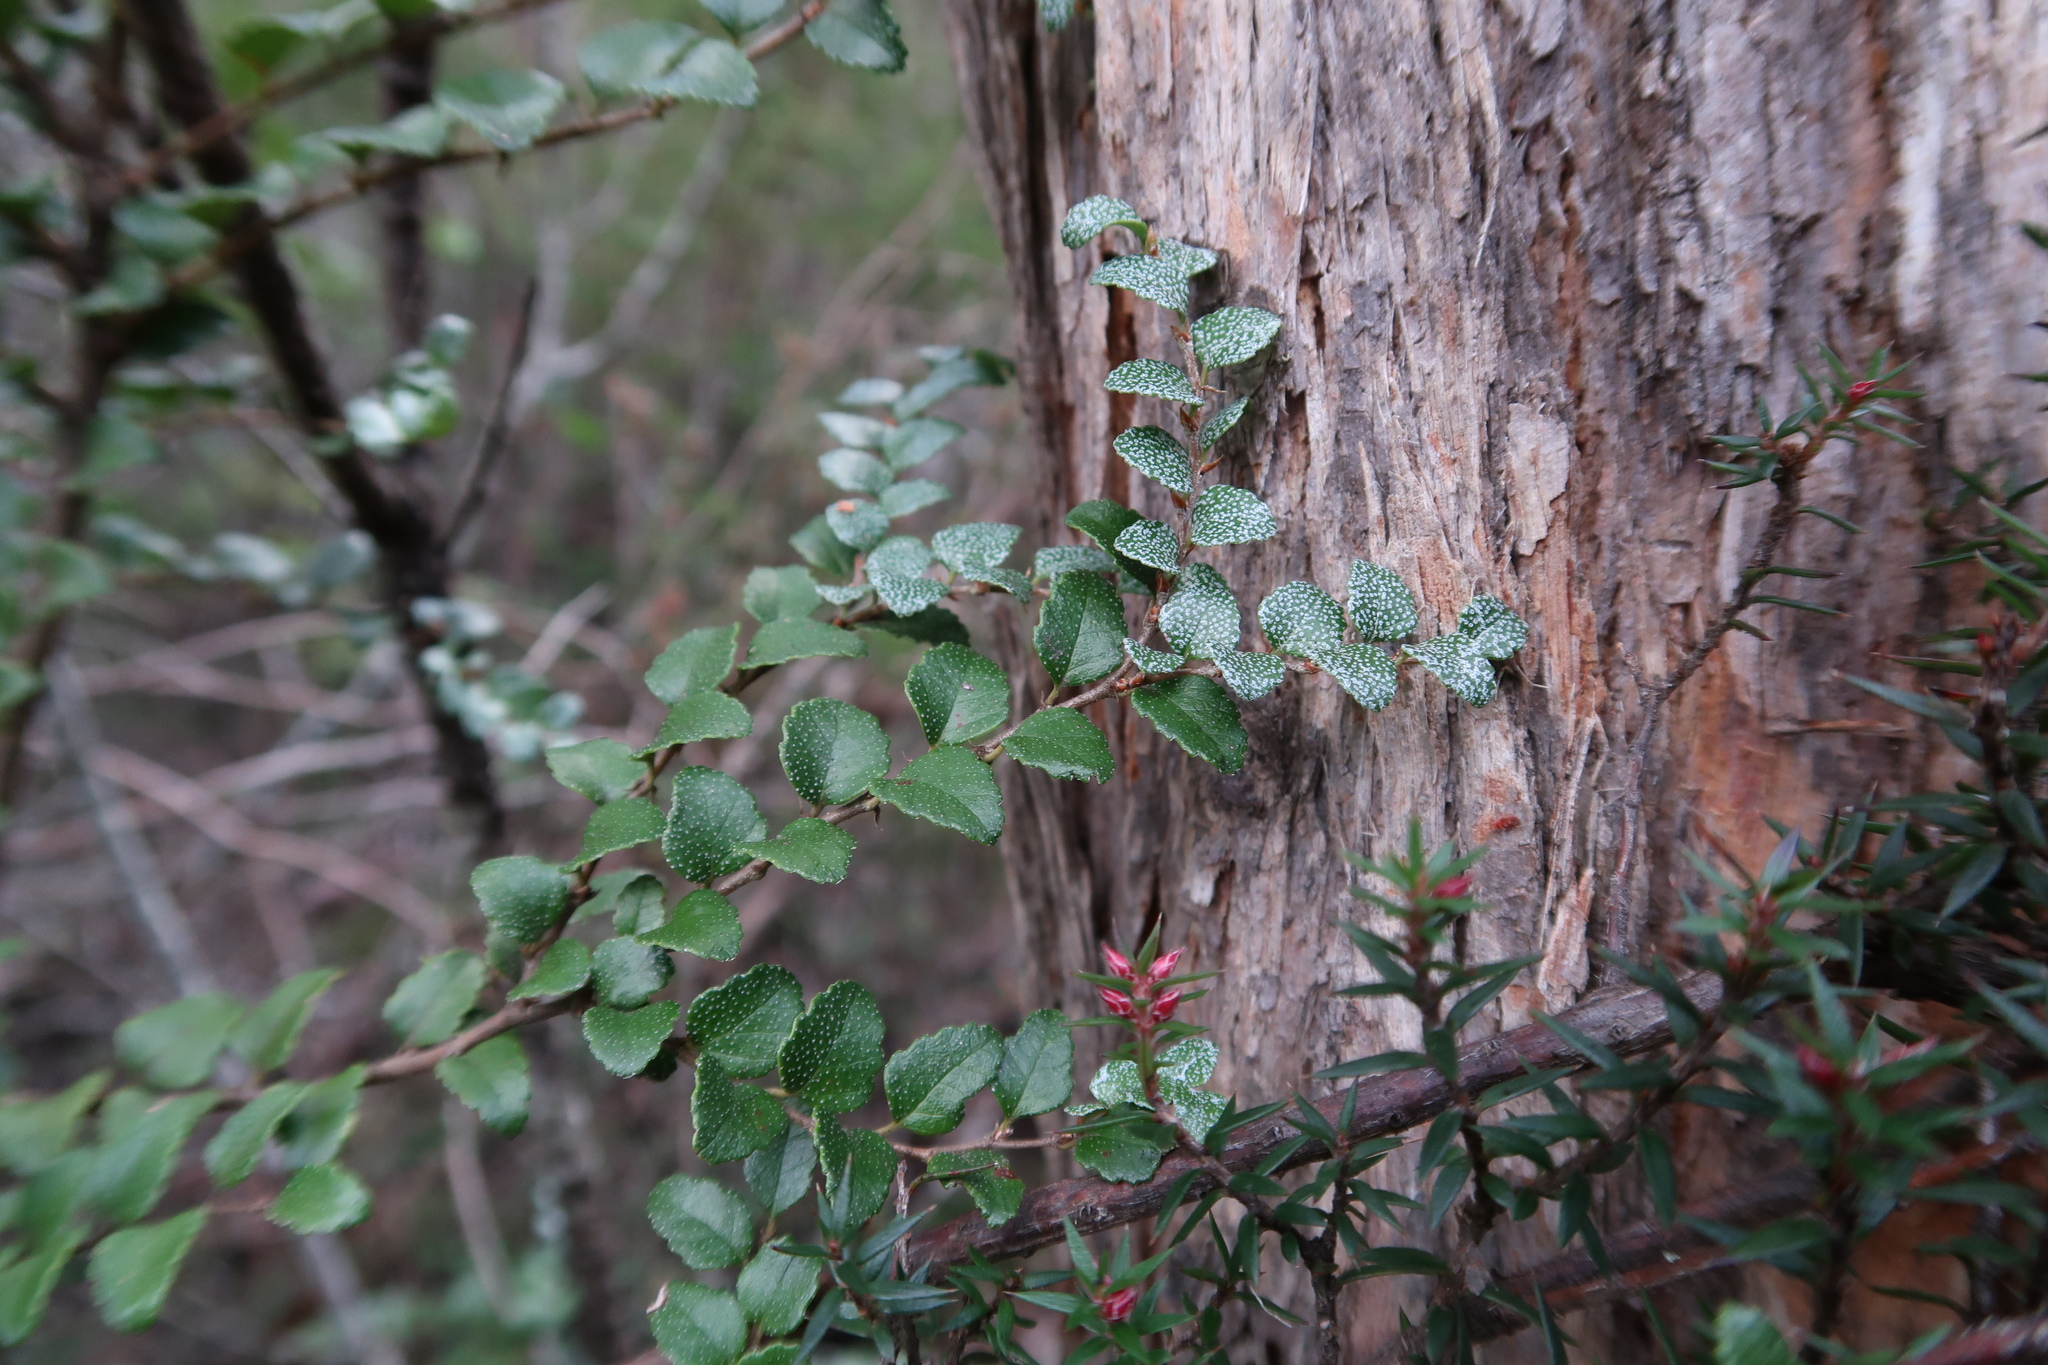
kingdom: Plantae
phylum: Tracheophyta
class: Magnoliopsida
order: Fagales
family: Nothofagaceae
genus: Nothofagus
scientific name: Nothofagus cunninghamii
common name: Myrtle beech
